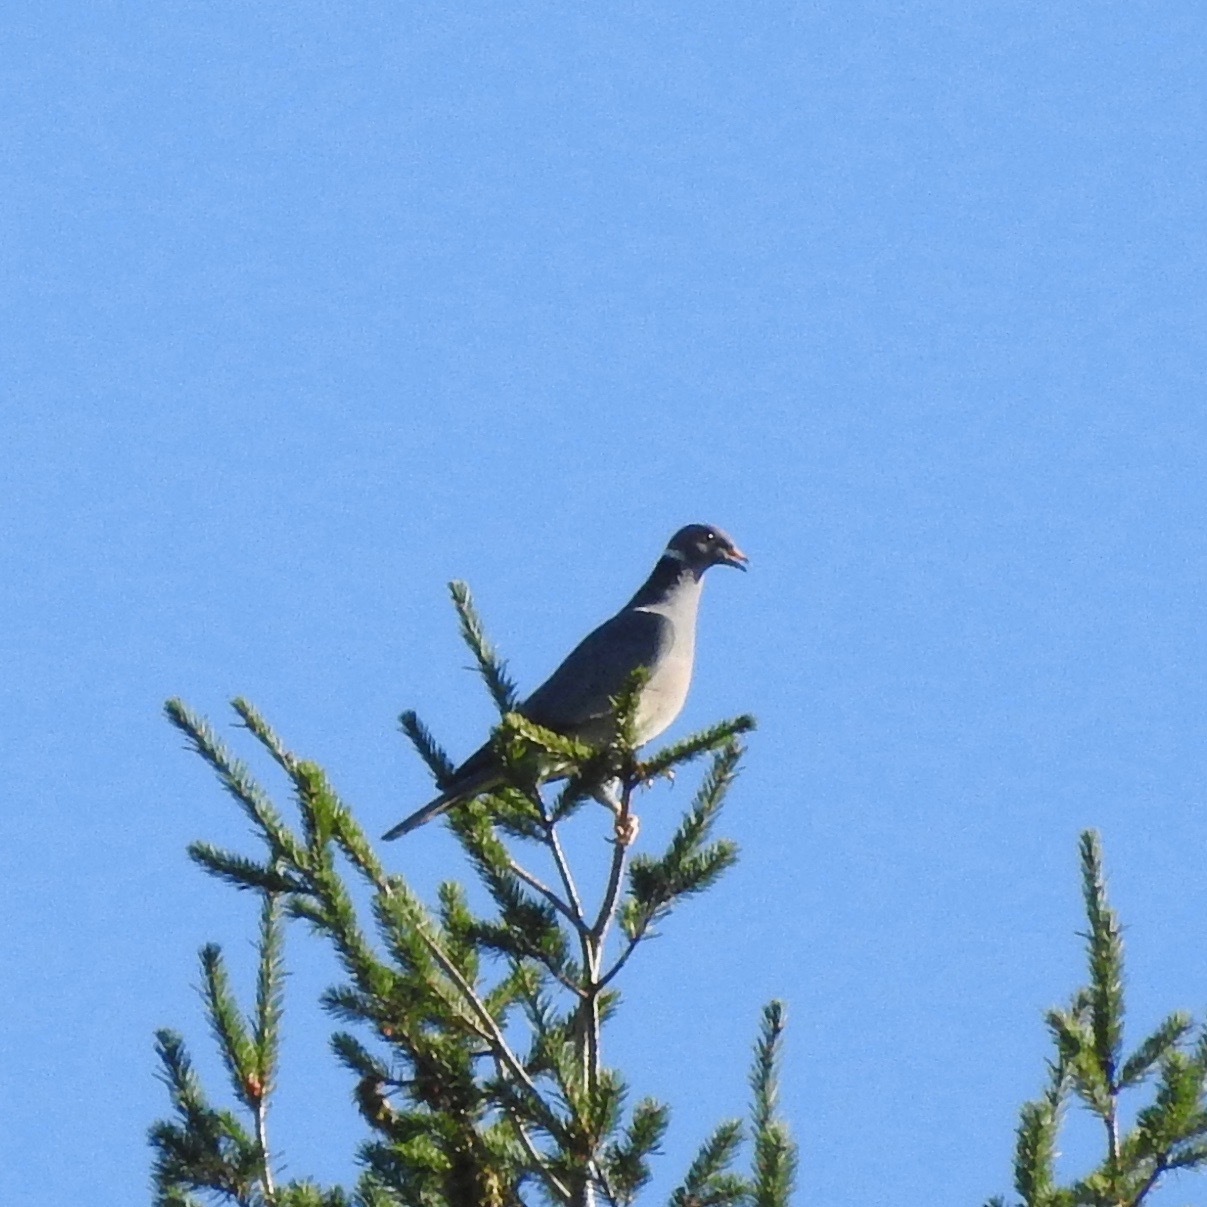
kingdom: Animalia
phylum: Chordata
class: Aves
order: Columbiformes
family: Columbidae
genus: Patagioenas
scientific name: Patagioenas fasciata
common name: Band-tailed pigeon
